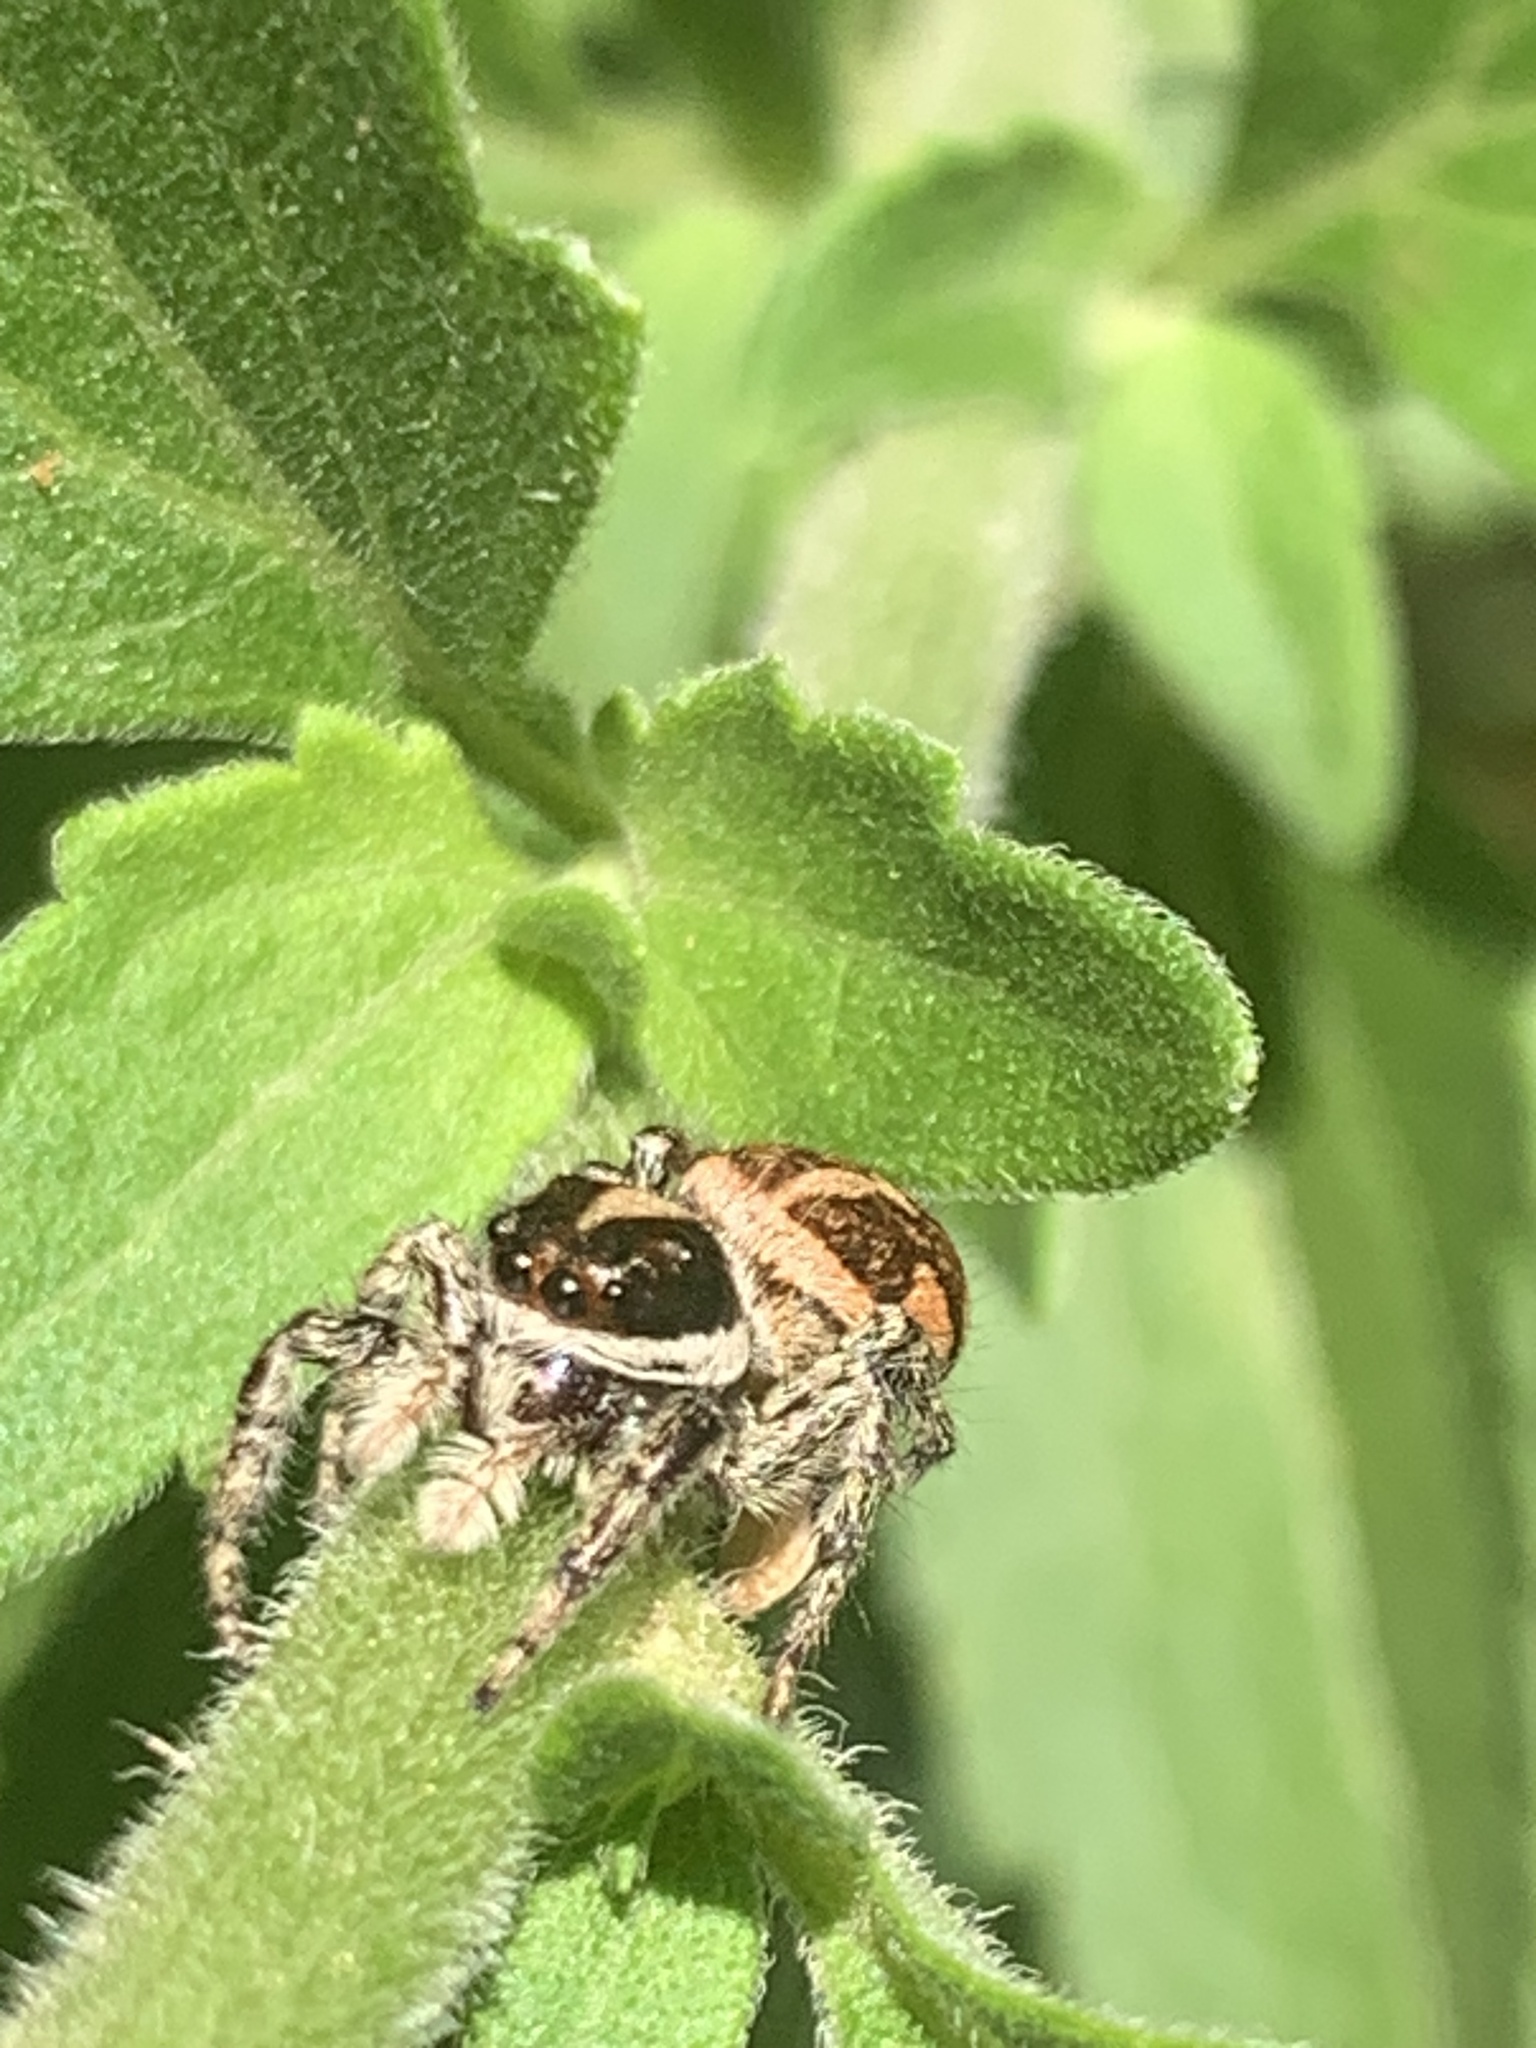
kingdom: Animalia
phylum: Arthropoda
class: Arachnida
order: Araneae
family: Salticidae
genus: Phiale
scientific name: Phiale roburifoliata
